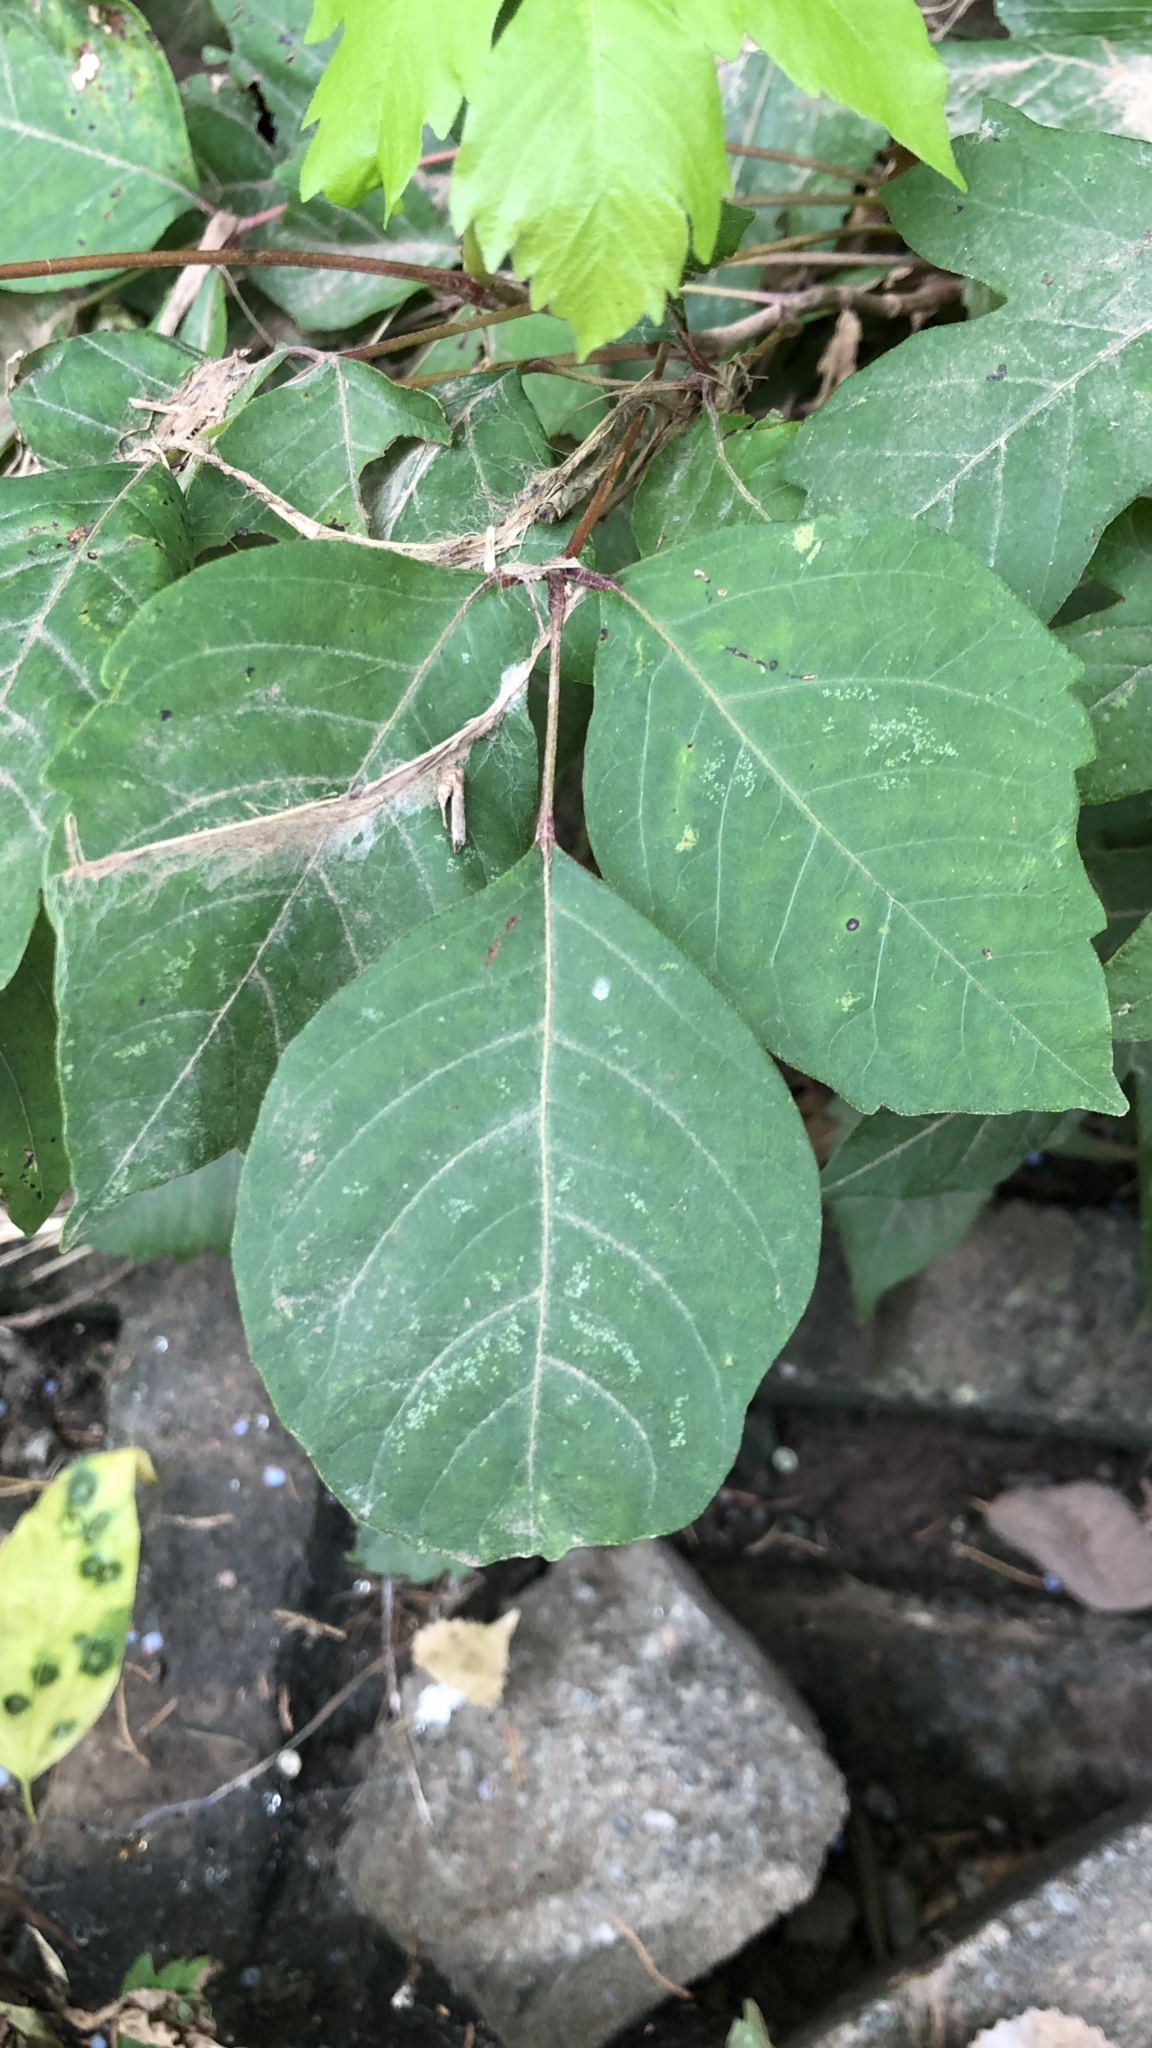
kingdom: Plantae
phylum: Tracheophyta
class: Magnoliopsida
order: Sapindales
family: Anacardiaceae
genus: Toxicodendron
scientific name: Toxicodendron radicans
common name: Poison ivy
